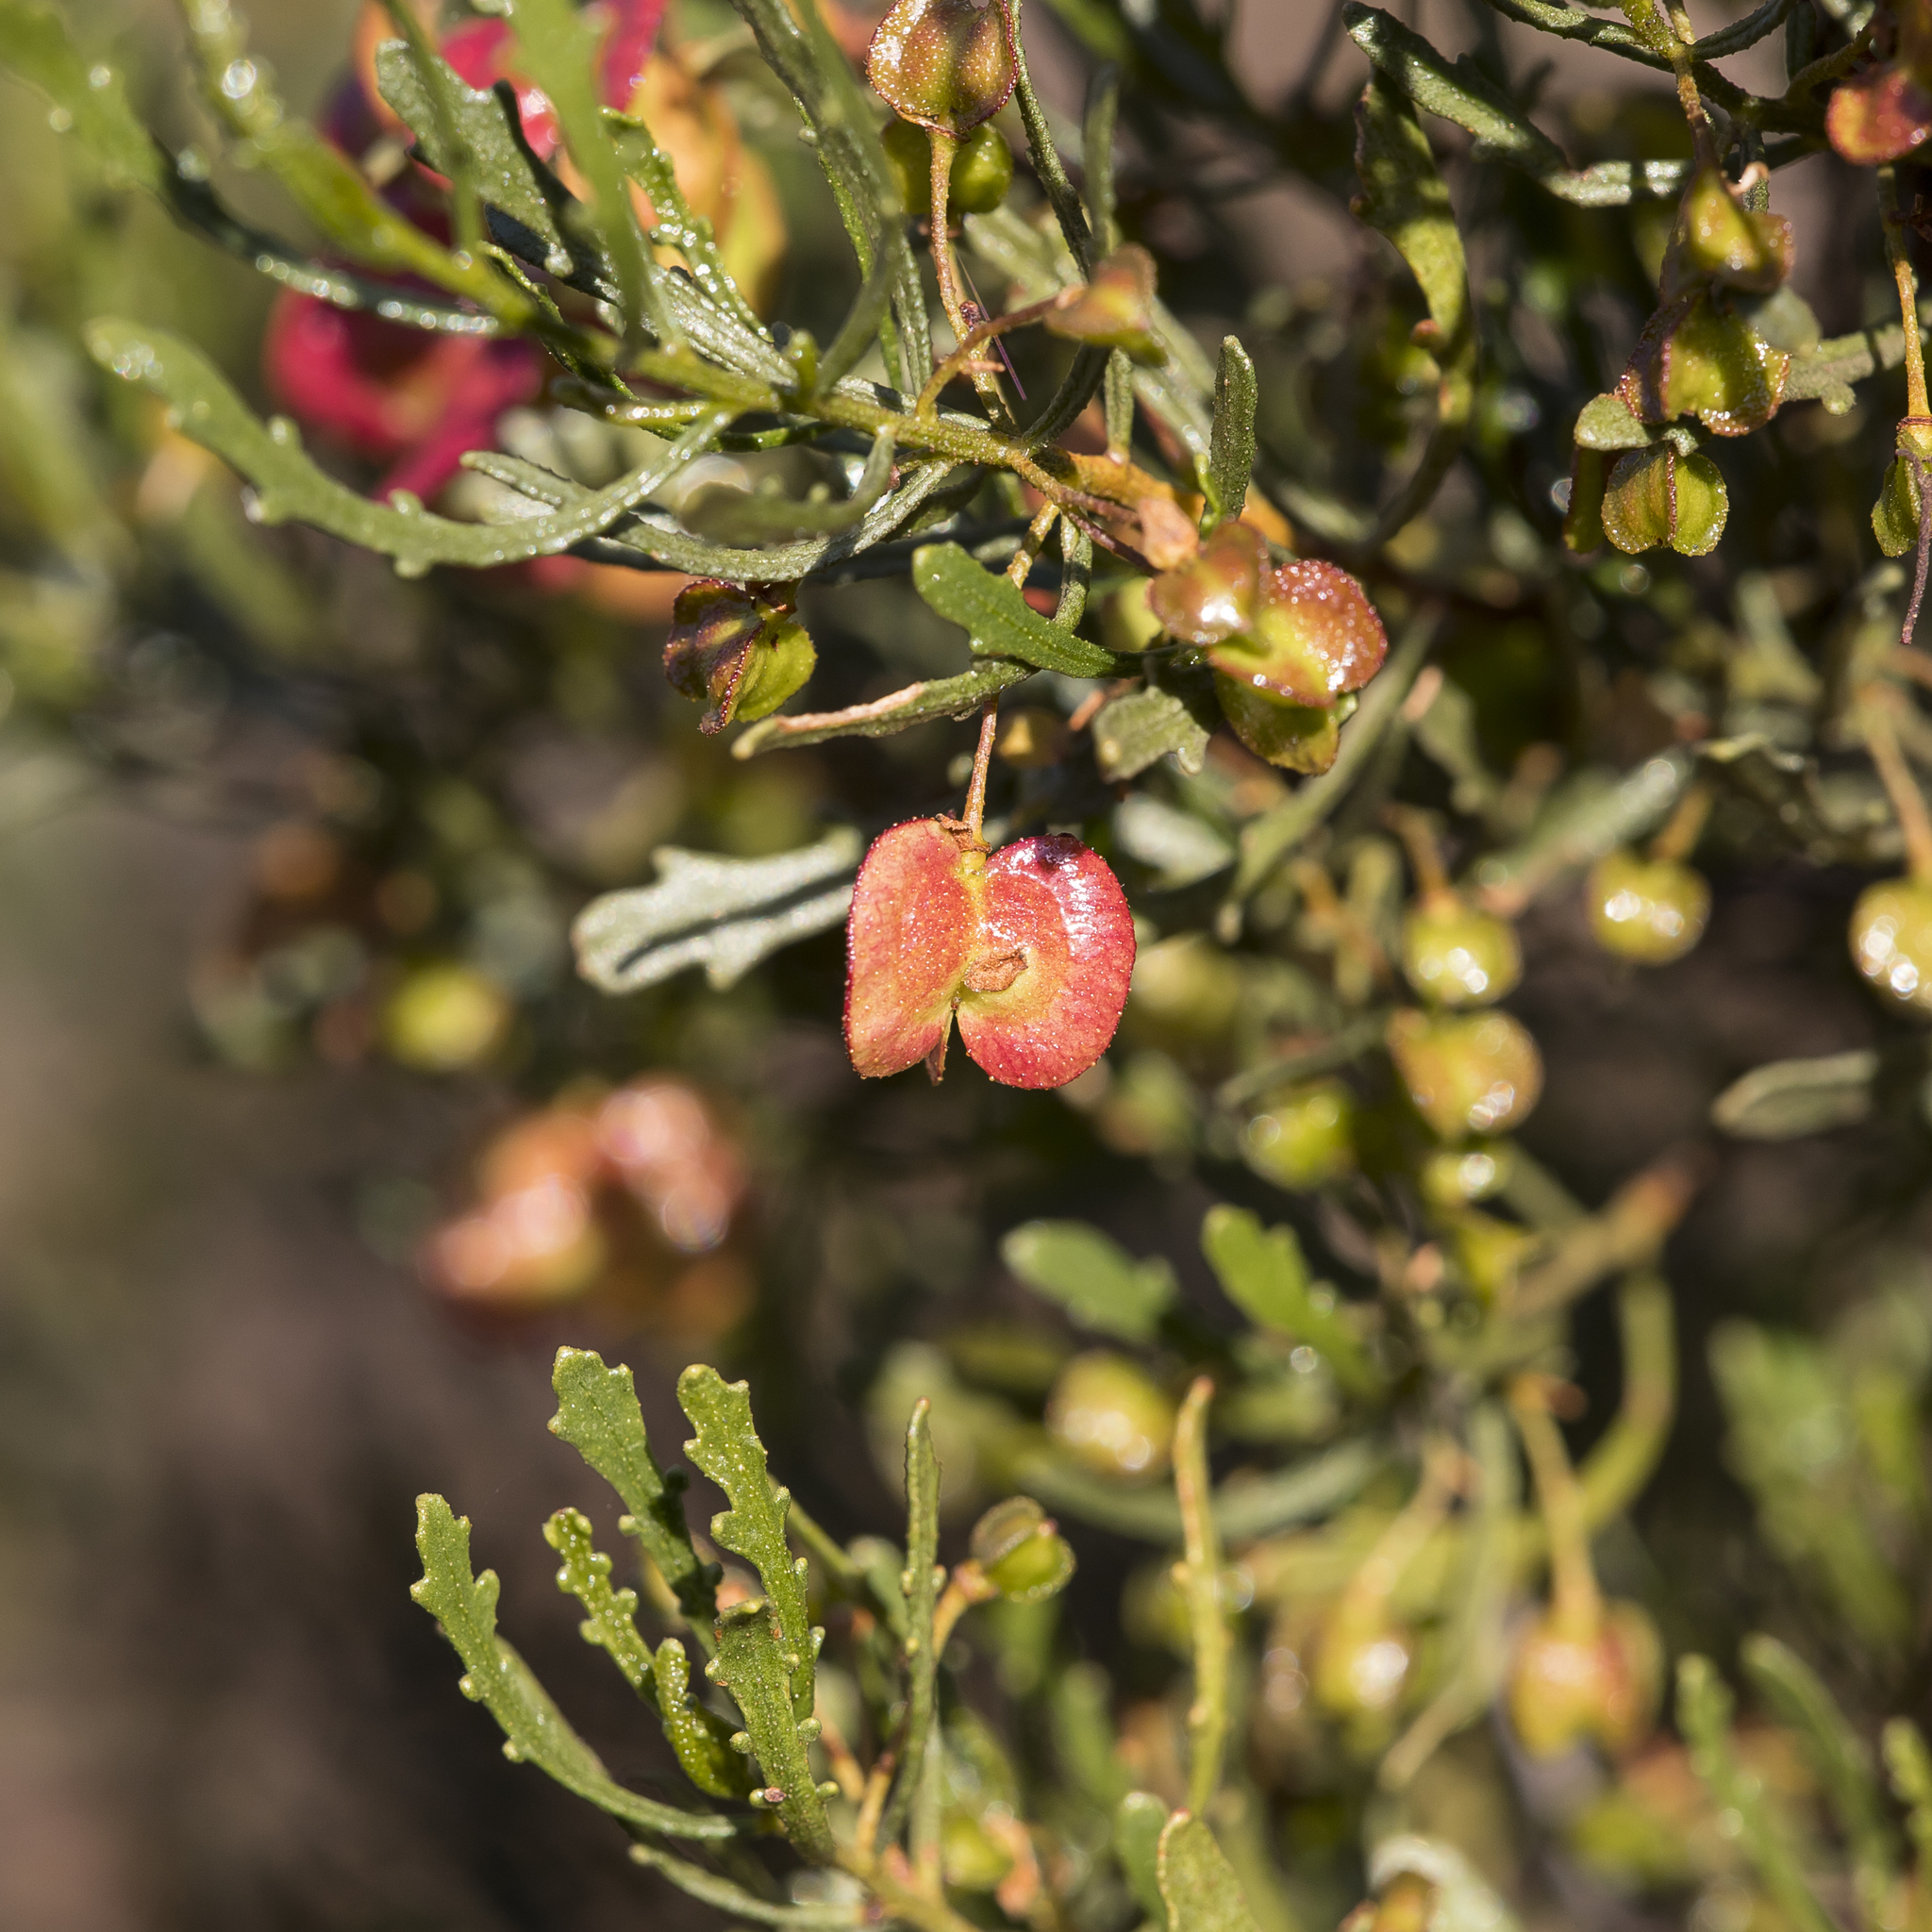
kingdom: Plantae
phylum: Tracheophyta
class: Magnoliopsida
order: Sapindales
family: Sapindaceae
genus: Dodonaea
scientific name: Dodonaea lobulata
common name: Lobe-leaf hopbush
